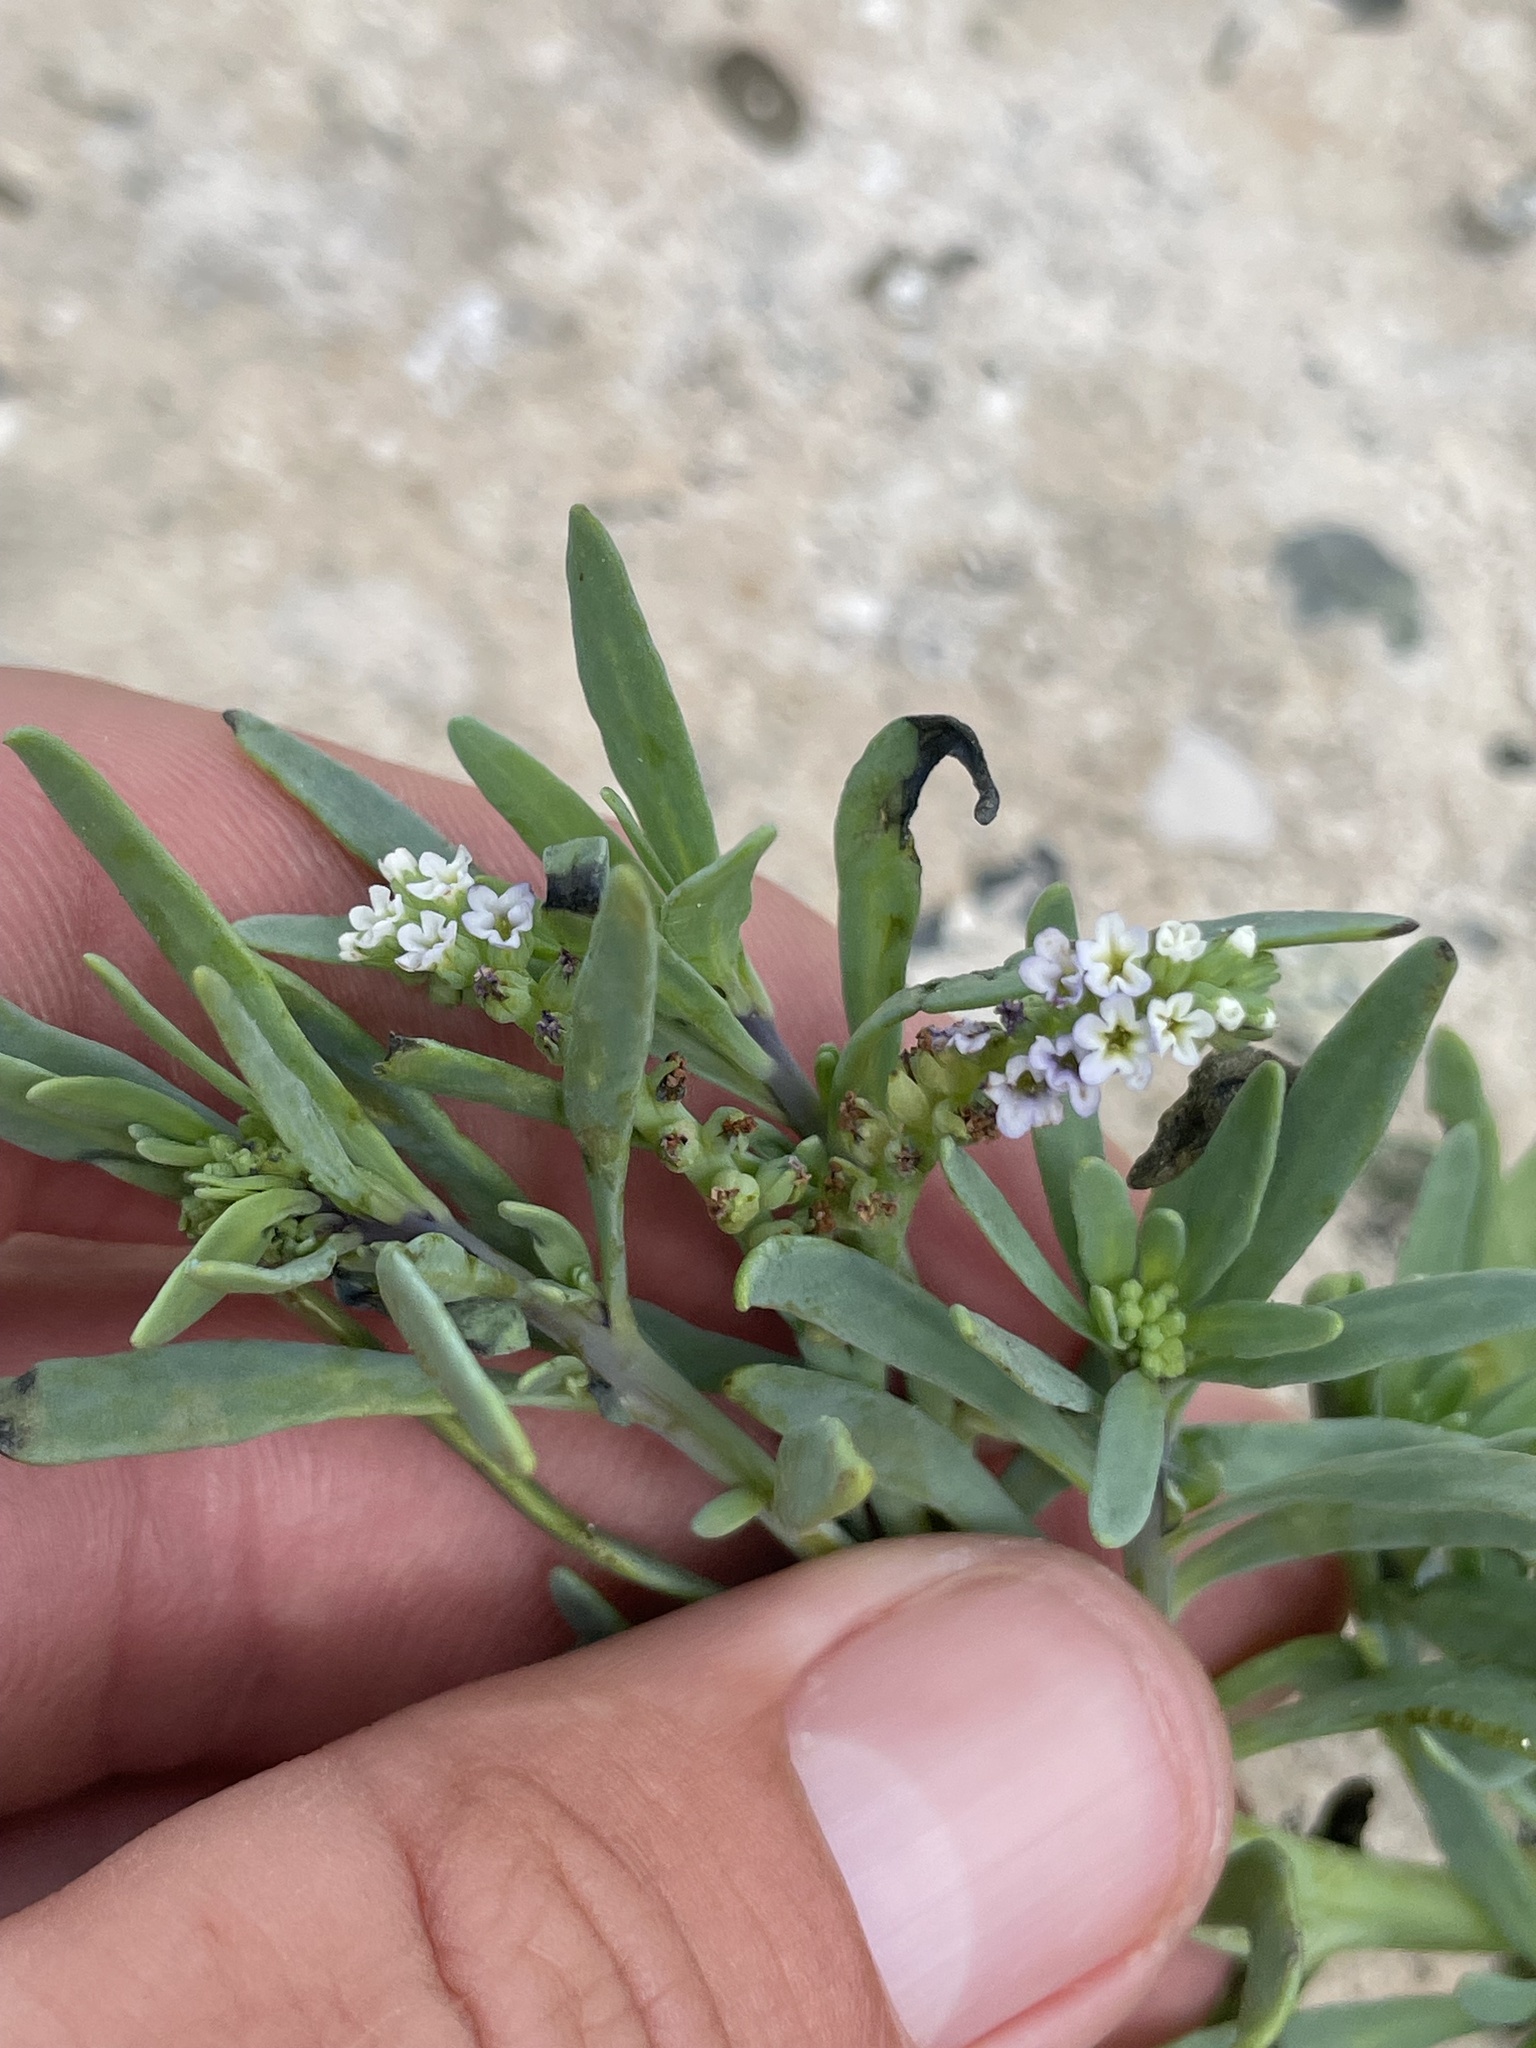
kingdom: Plantae
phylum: Tracheophyta
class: Magnoliopsida
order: Boraginales
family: Heliotropiaceae
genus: Heliotropium
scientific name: Heliotropium curassavicum
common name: Seaside heliotrope
